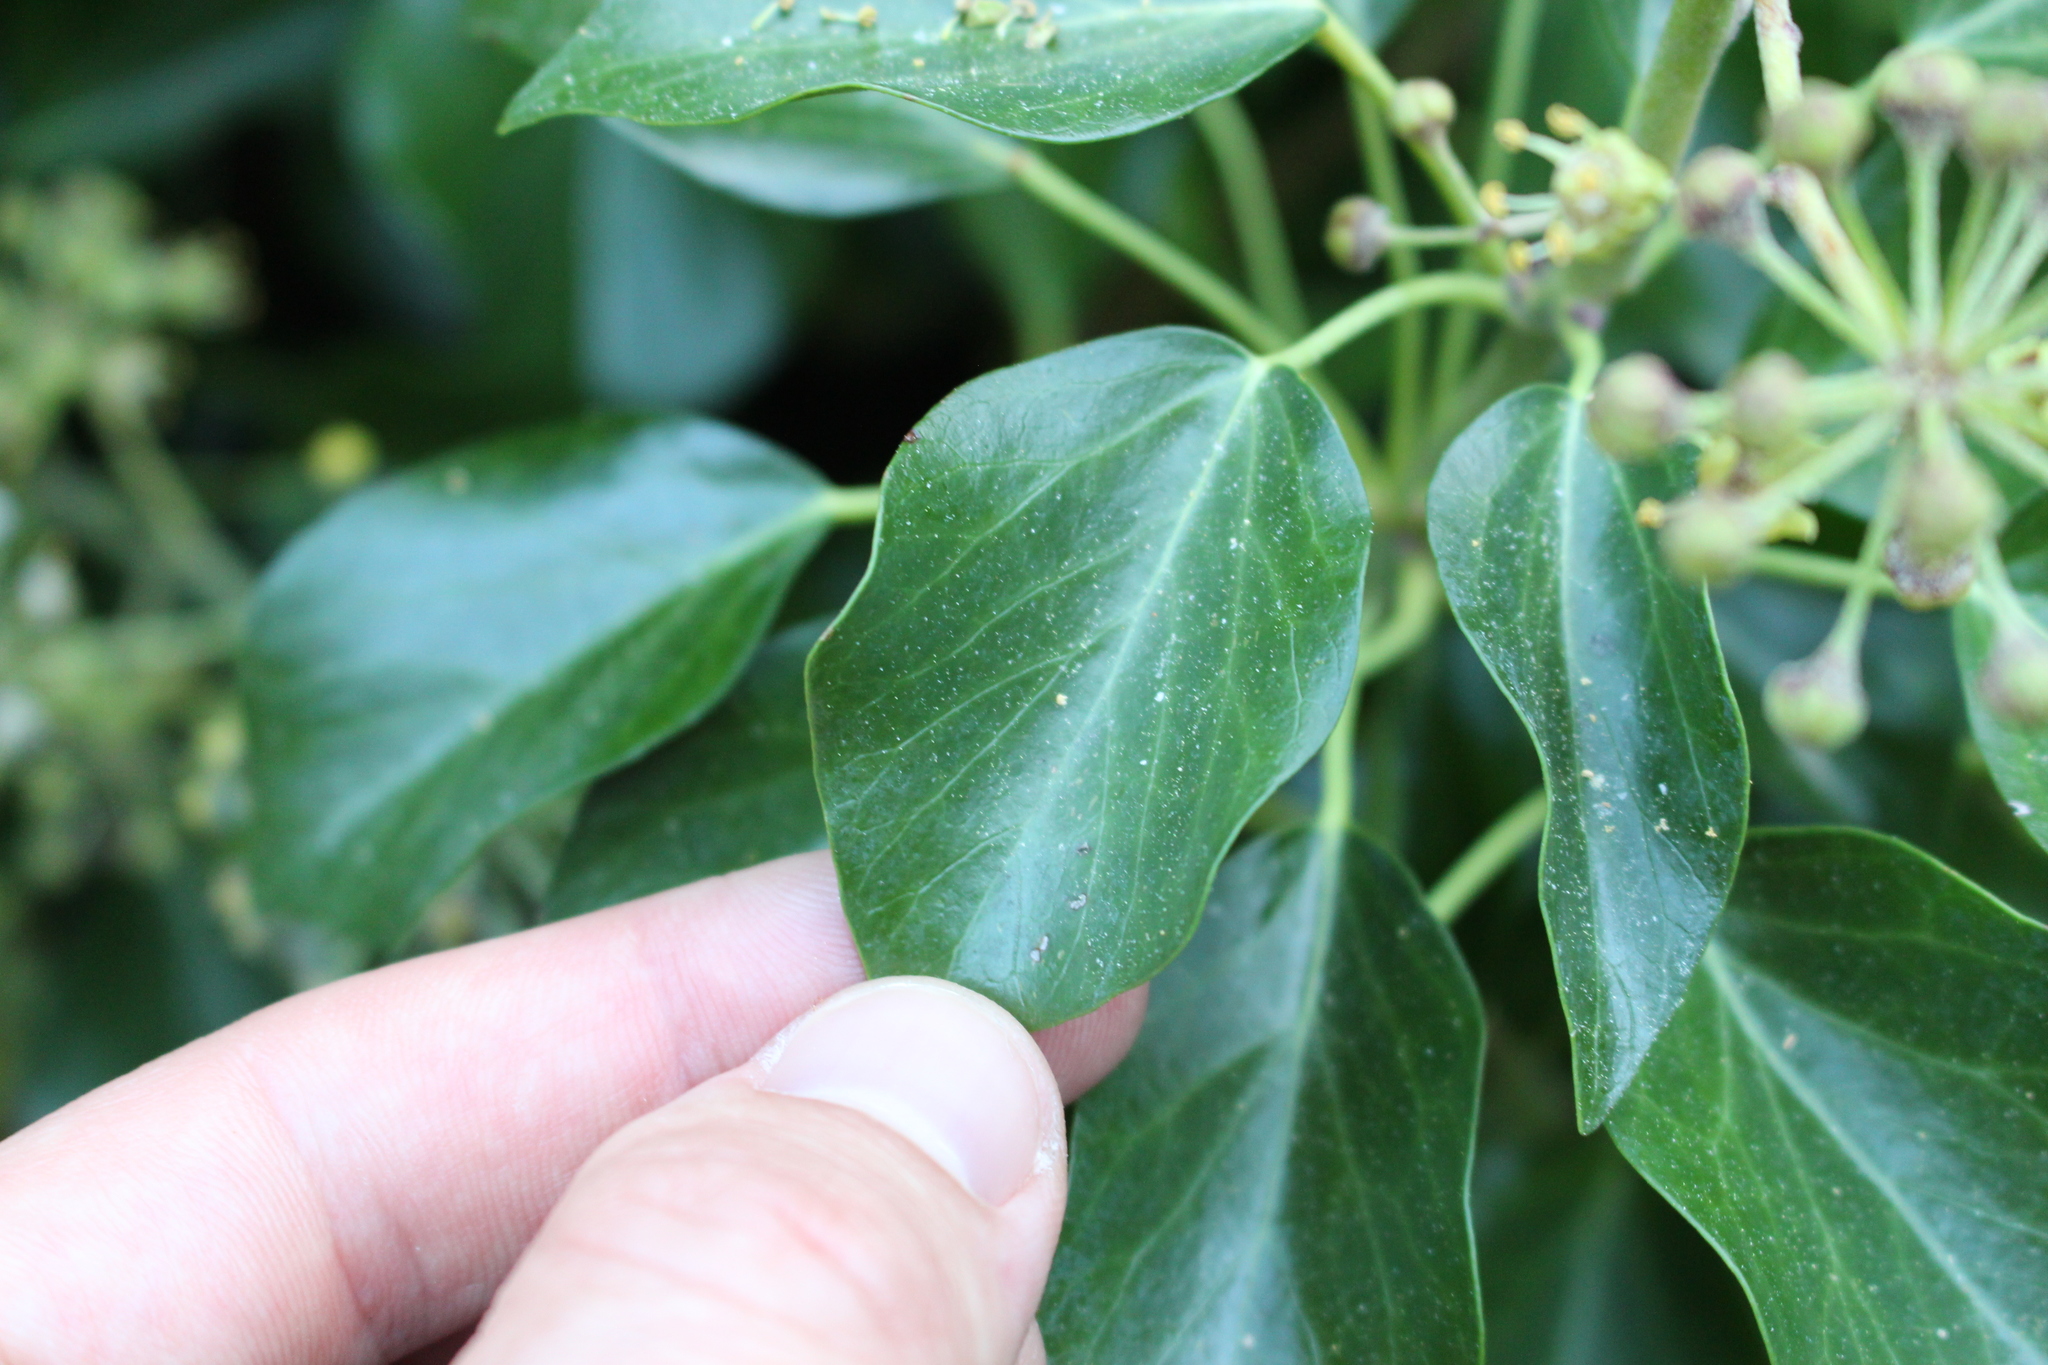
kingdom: Plantae
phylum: Tracheophyta
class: Magnoliopsida
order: Apiales
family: Araliaceae
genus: Hedera
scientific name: Hedera helix
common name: Ivy
